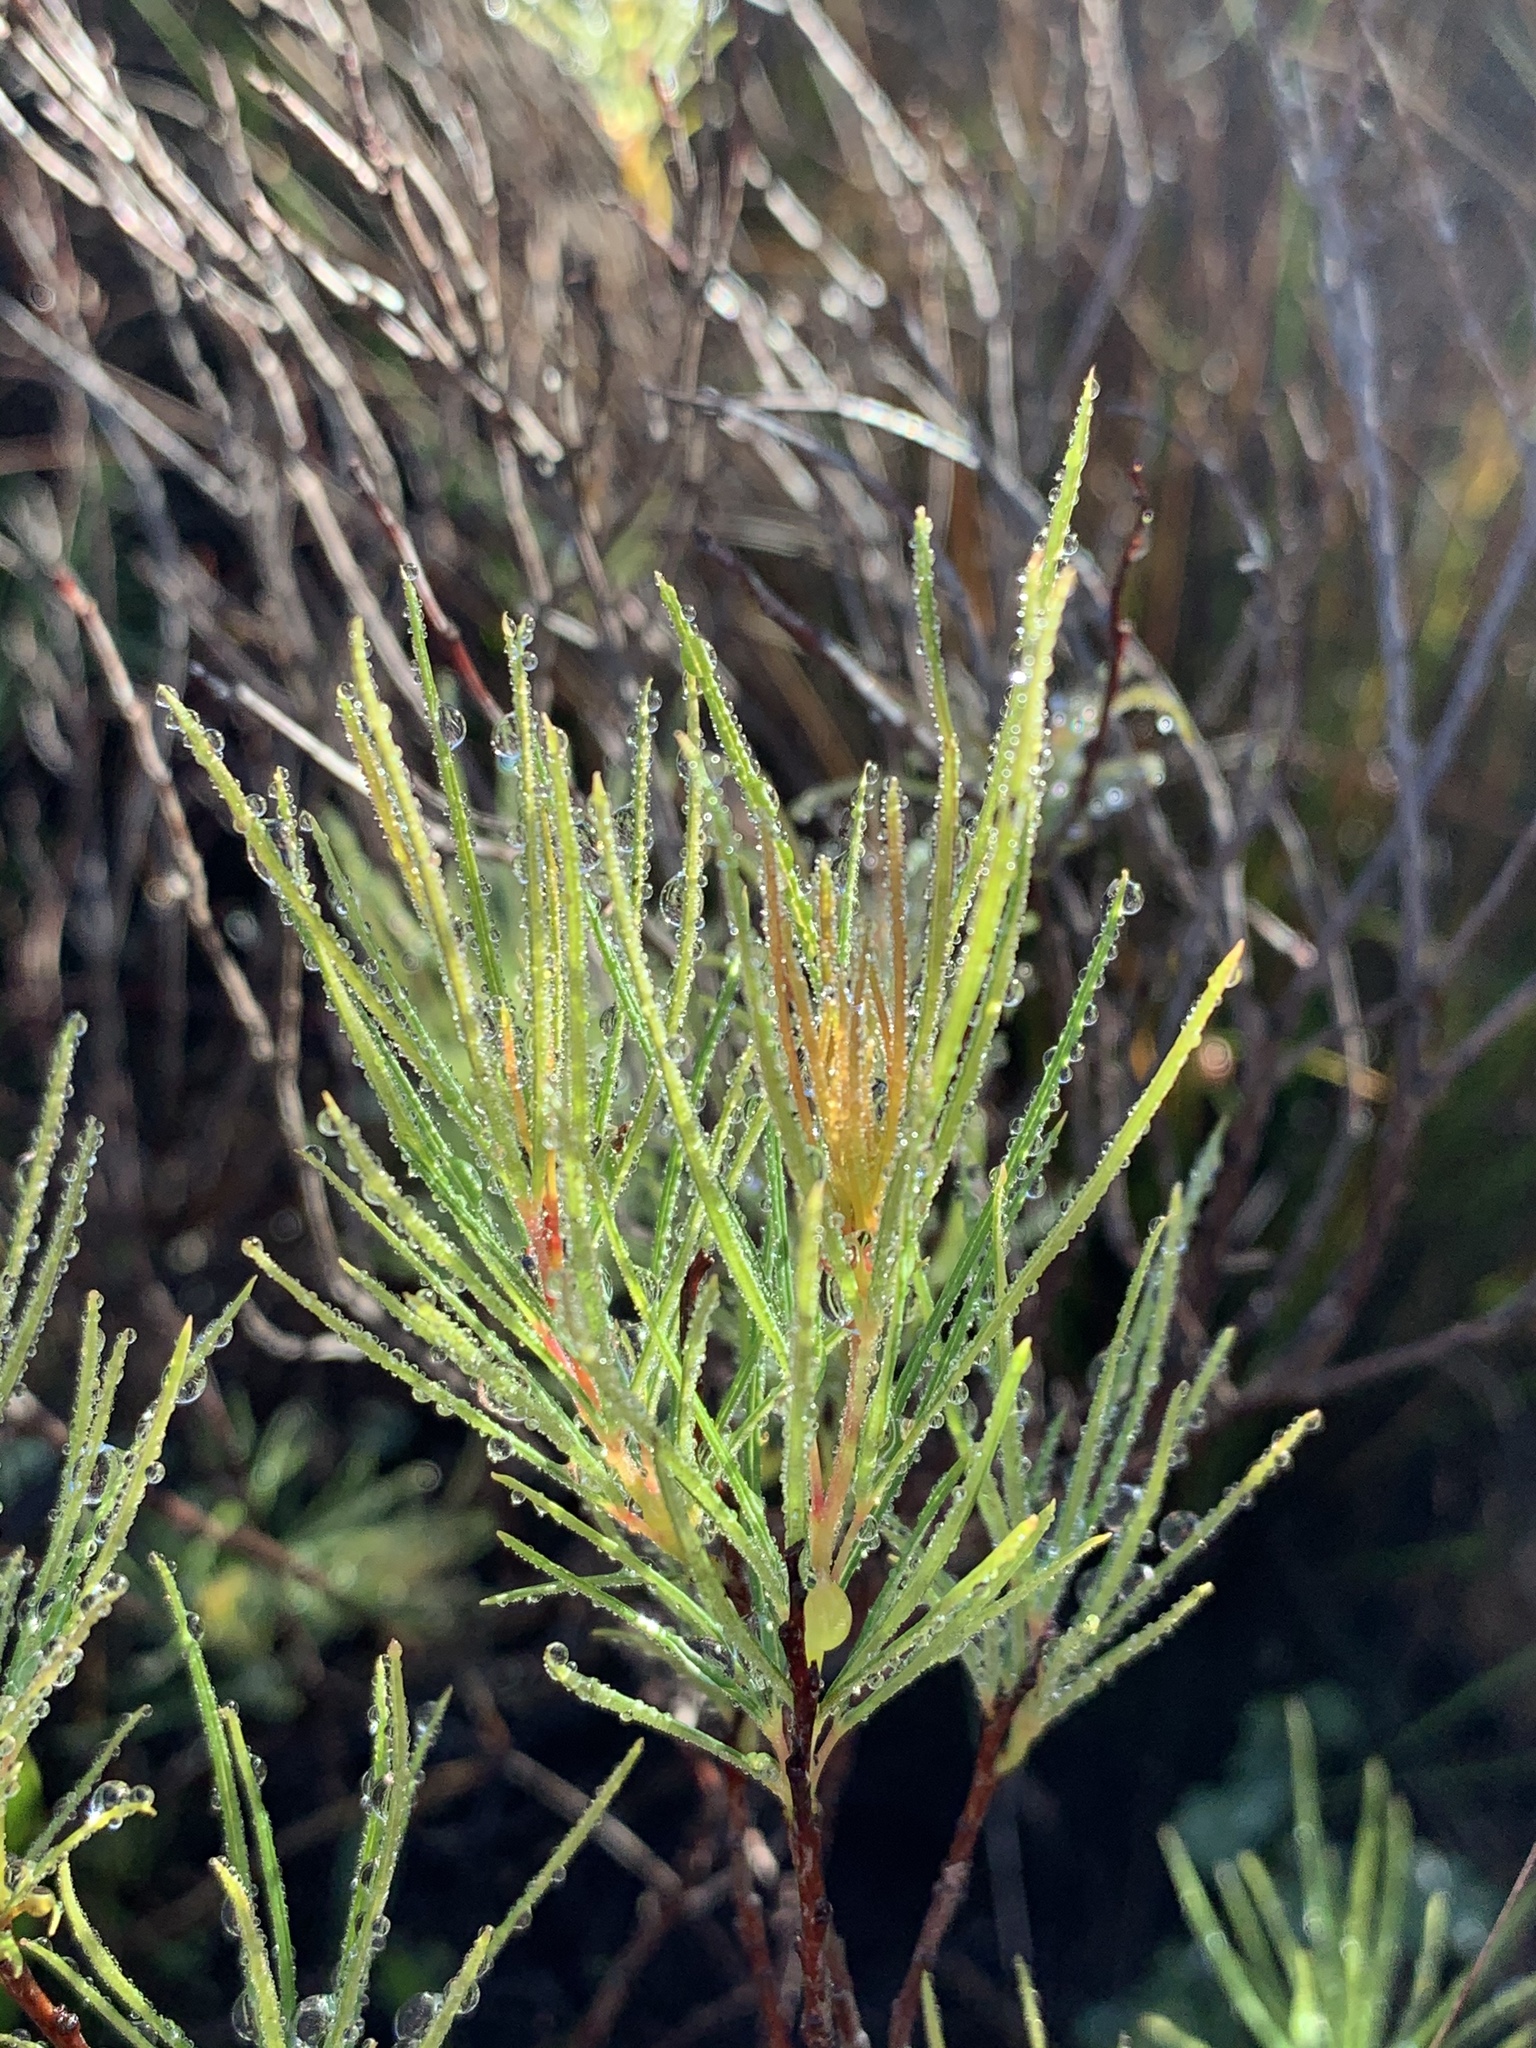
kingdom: Plantae
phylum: Tracheophyta
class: Magnoliopsida
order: Sapindales
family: Anacardiaceae
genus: Searsia
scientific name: Searsia rosmarinifolia
